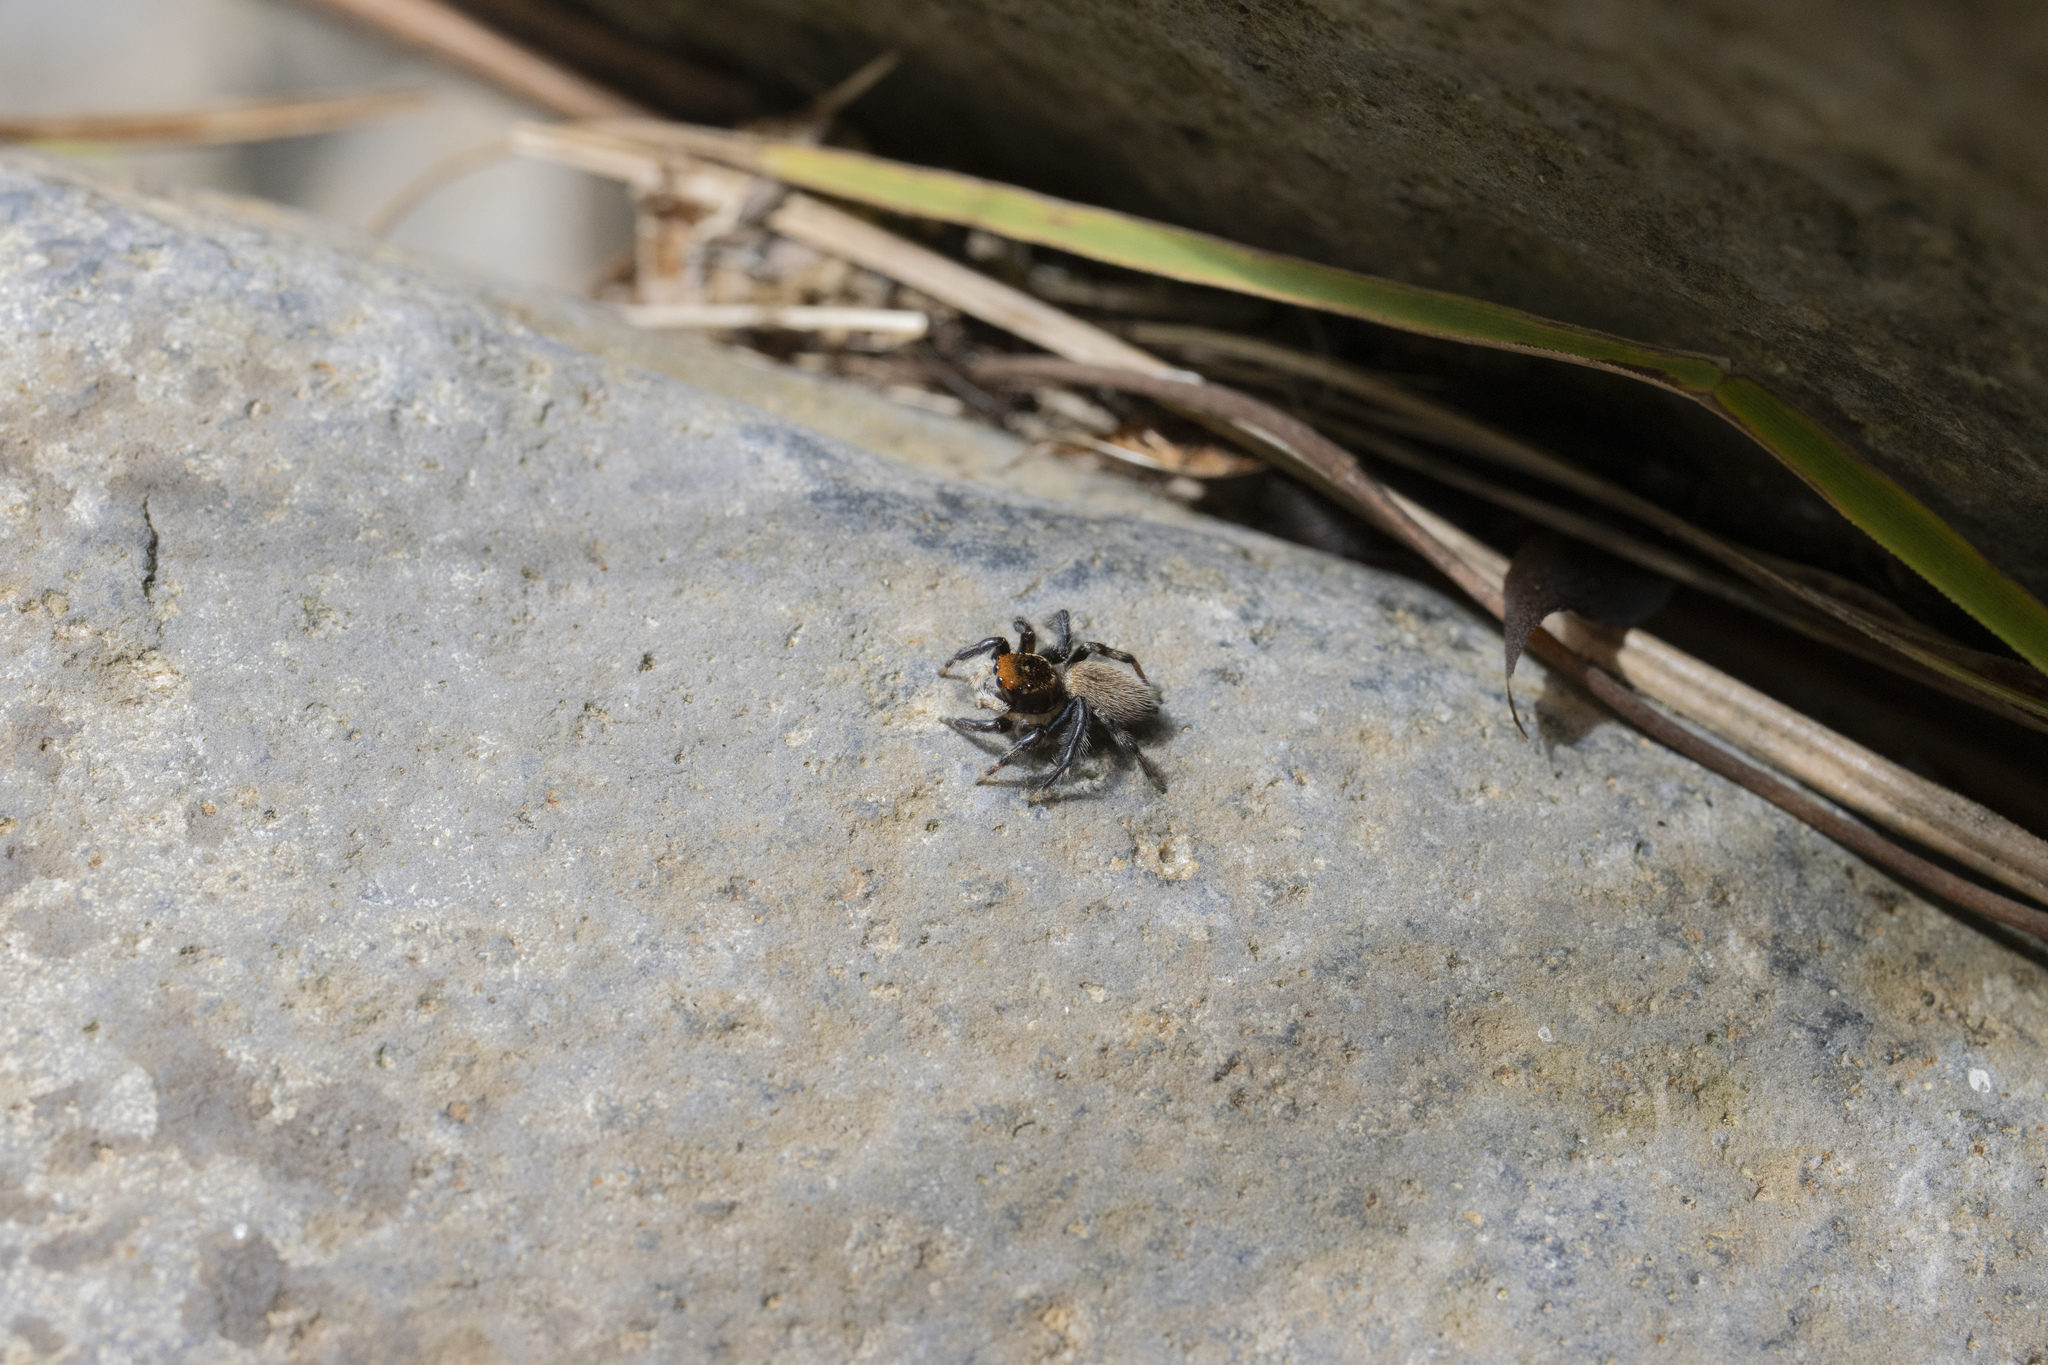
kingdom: Animalia
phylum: Arthropoda
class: Arachnida
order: Araneae
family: Salticidae
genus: Maratus
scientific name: Maratus griseus
